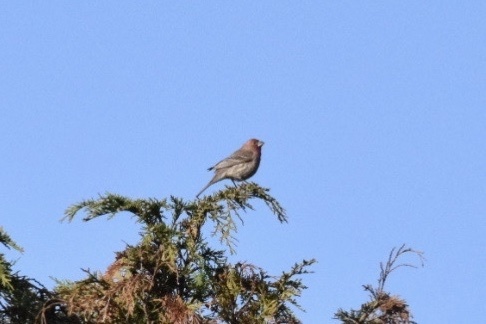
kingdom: Animalia
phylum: Chordata
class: Aves
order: Passeriformes
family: Fringillidae
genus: Haemorhous
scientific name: Haemorhous mexicanus
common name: House finch
